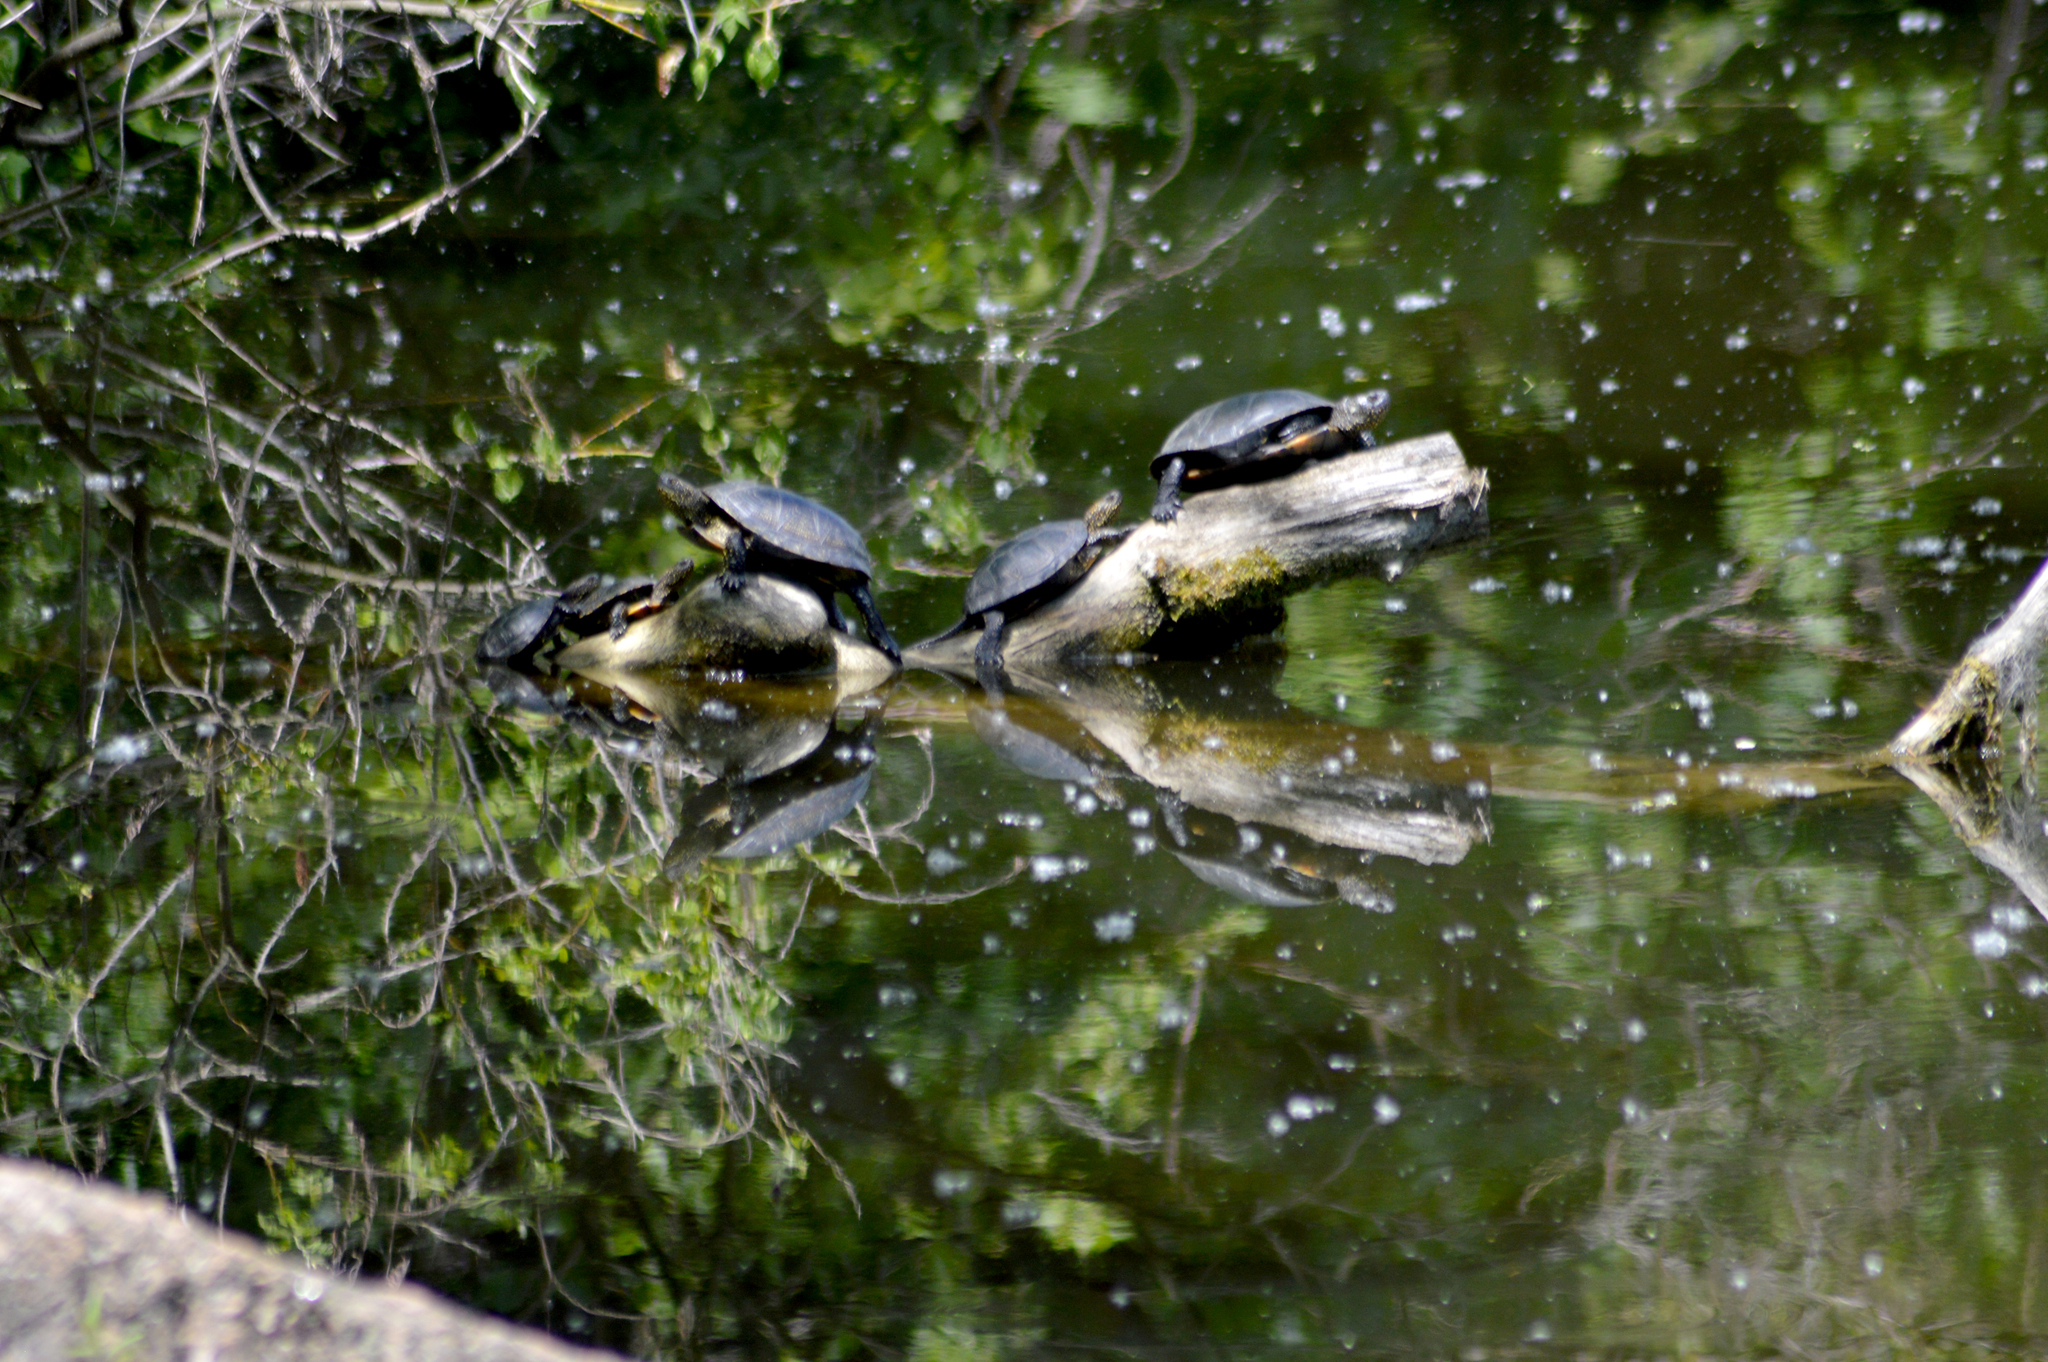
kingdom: Animalia
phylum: Chordata
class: Testudines
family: Emydidae
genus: Emys
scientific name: Emys orbicularis
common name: European pond turtle
